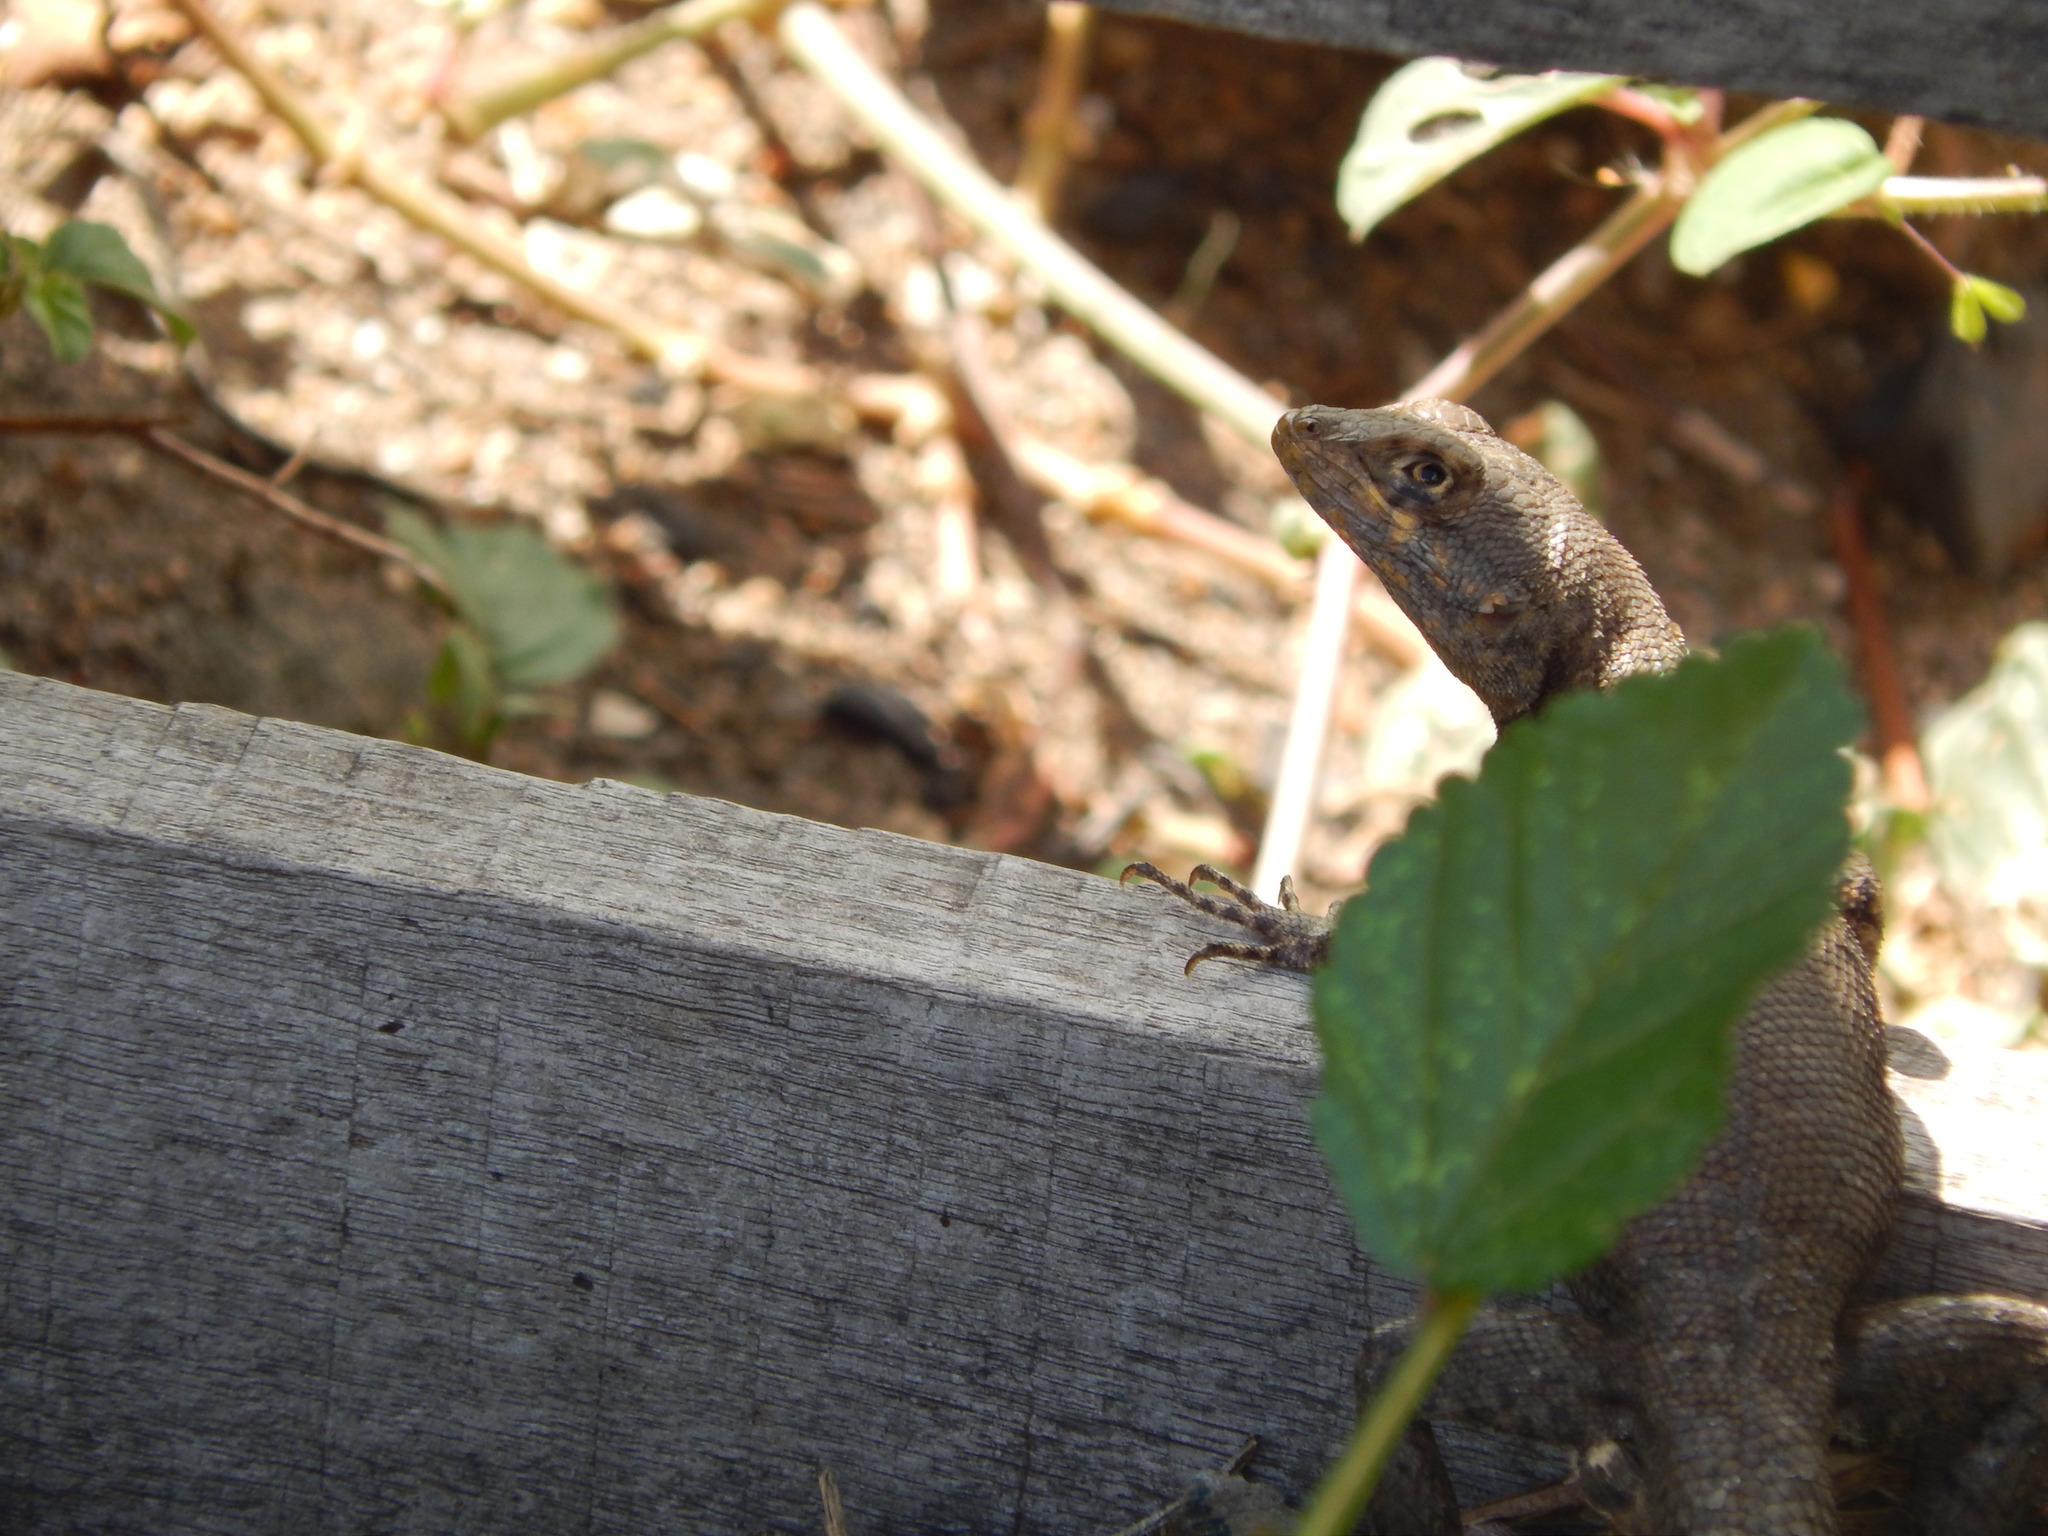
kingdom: Animalia
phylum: Chordata
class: Squamata
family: Tropiduridae
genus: Tropidurus
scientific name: Tropidurus hispidus
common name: Peters' lava lizard
